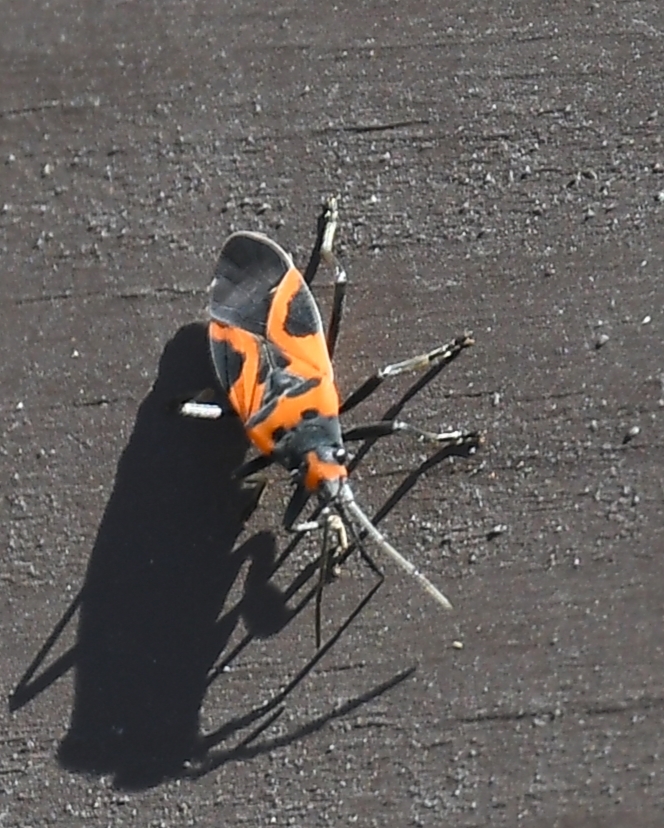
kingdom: Animalia
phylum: Arthropoda
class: Insecta
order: Hemiptera
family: Lygaeidae
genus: Lygaeus
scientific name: Lygaeus turcicus
